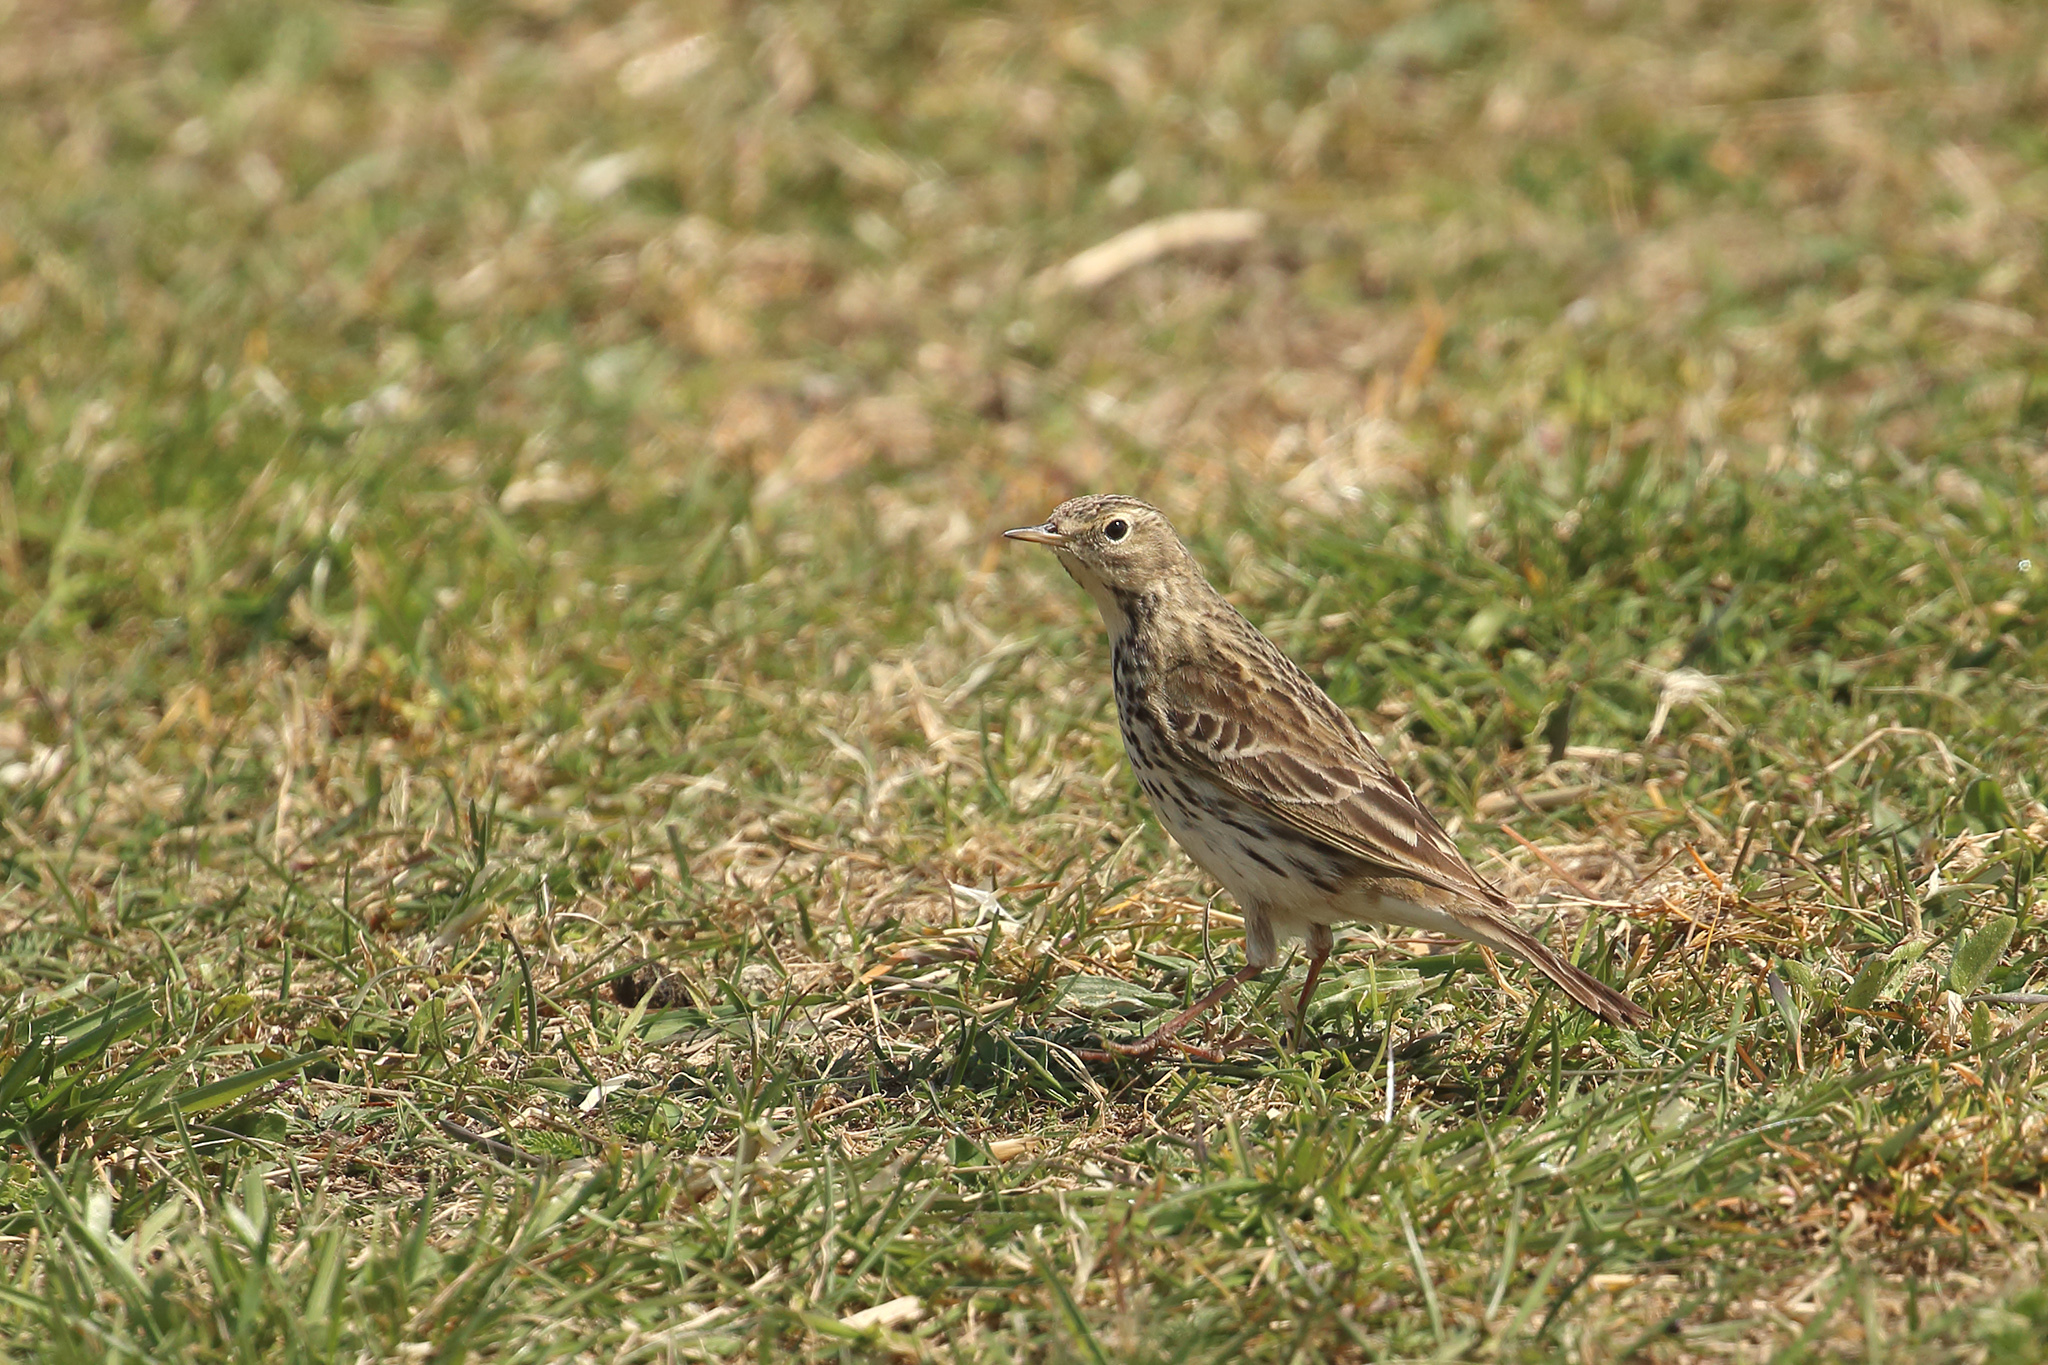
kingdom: Animalia
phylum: Chordata
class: Aves
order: Passeriformes
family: Motacillidae
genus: Anthus
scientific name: Anthus pratensis
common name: Meadow pipit
